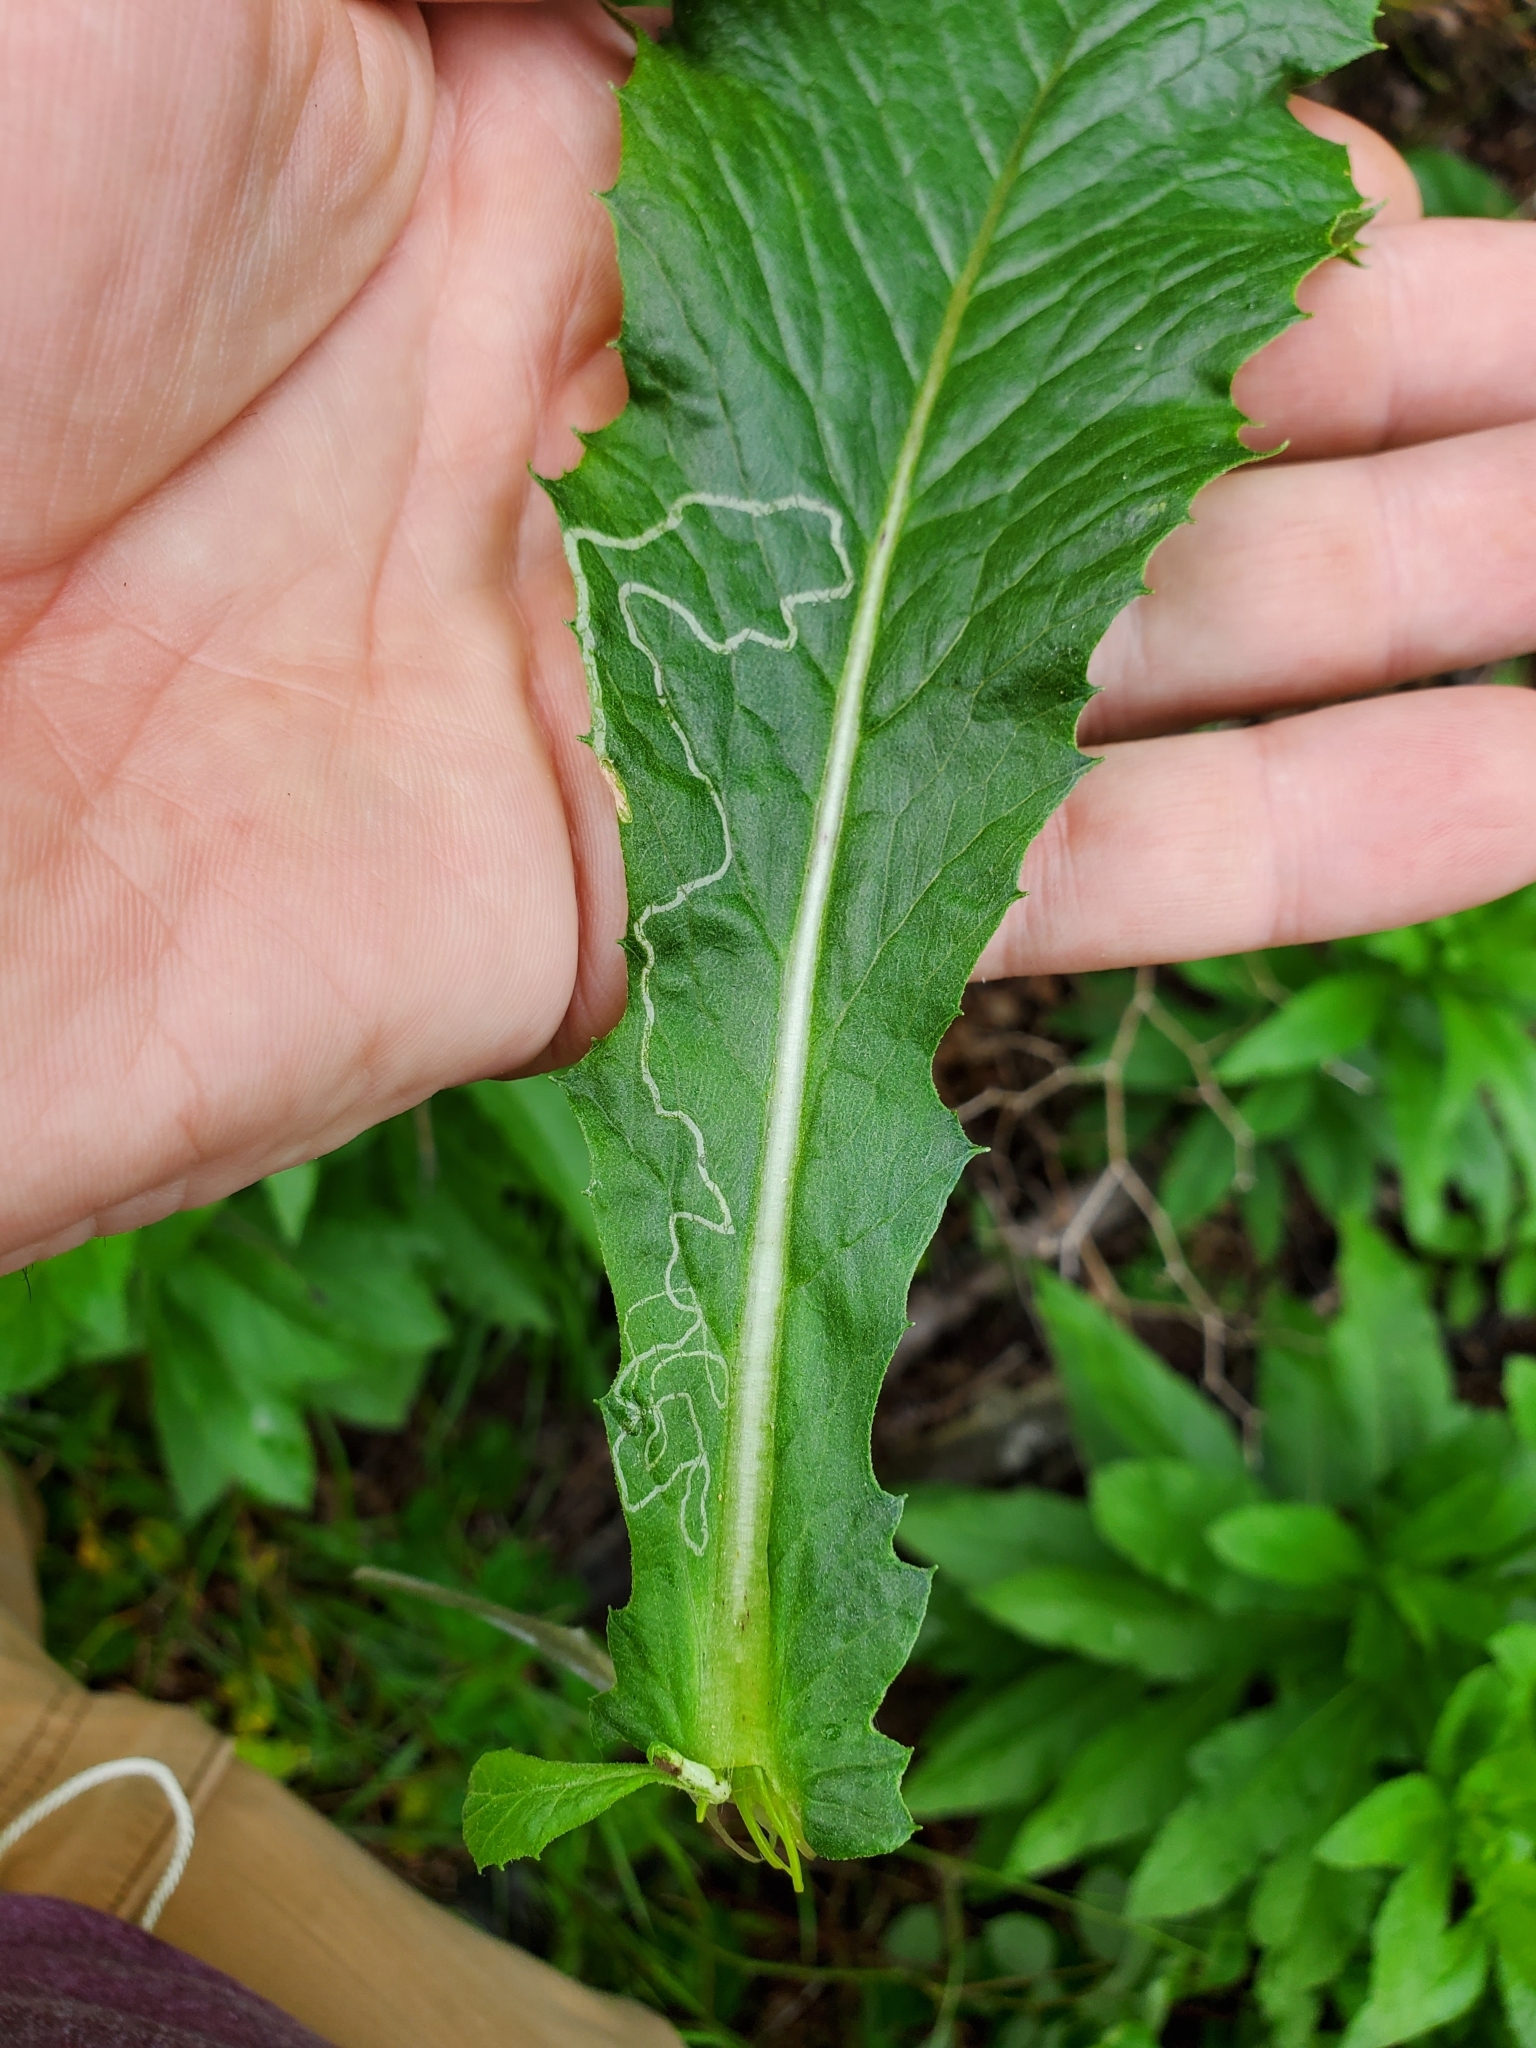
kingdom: Animalia
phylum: Arthropoda
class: Insecta
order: Lepidoptera
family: Gracillariidae
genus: Phyllocnistis
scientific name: Phyllocnistis insignis
